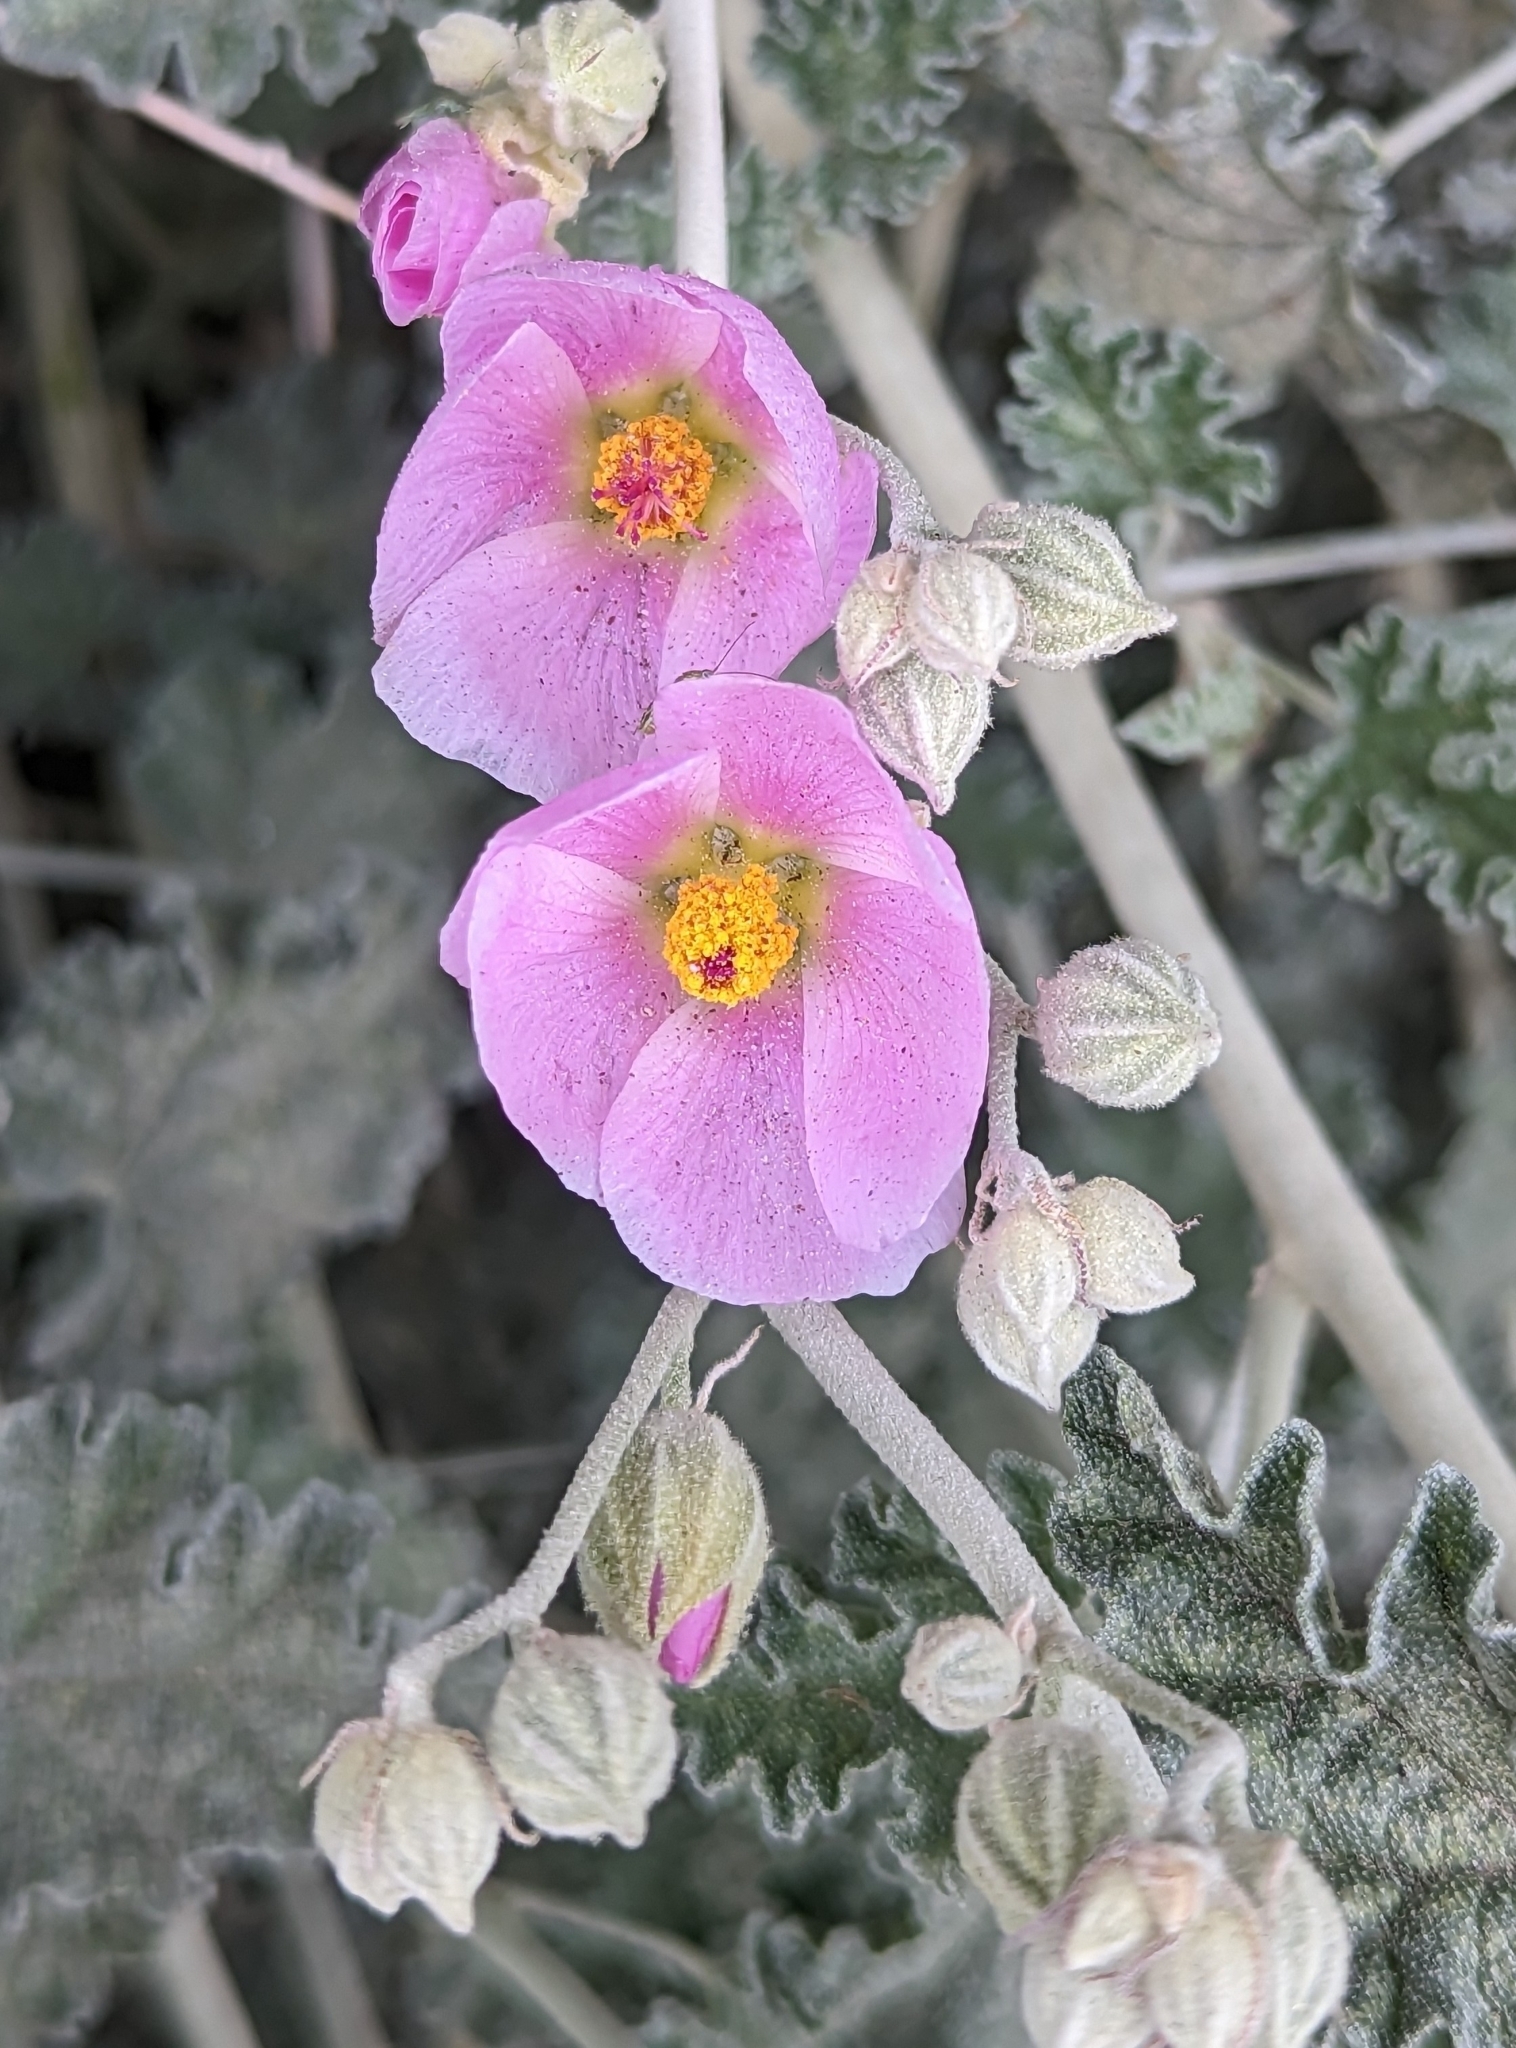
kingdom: Plantae
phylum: Tracheophyta
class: Magnoliopsida
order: Malvales
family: Malvaceae
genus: Sphaeralcea
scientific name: Sphaeralcea ambigua
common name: Apricot globe-mallow
